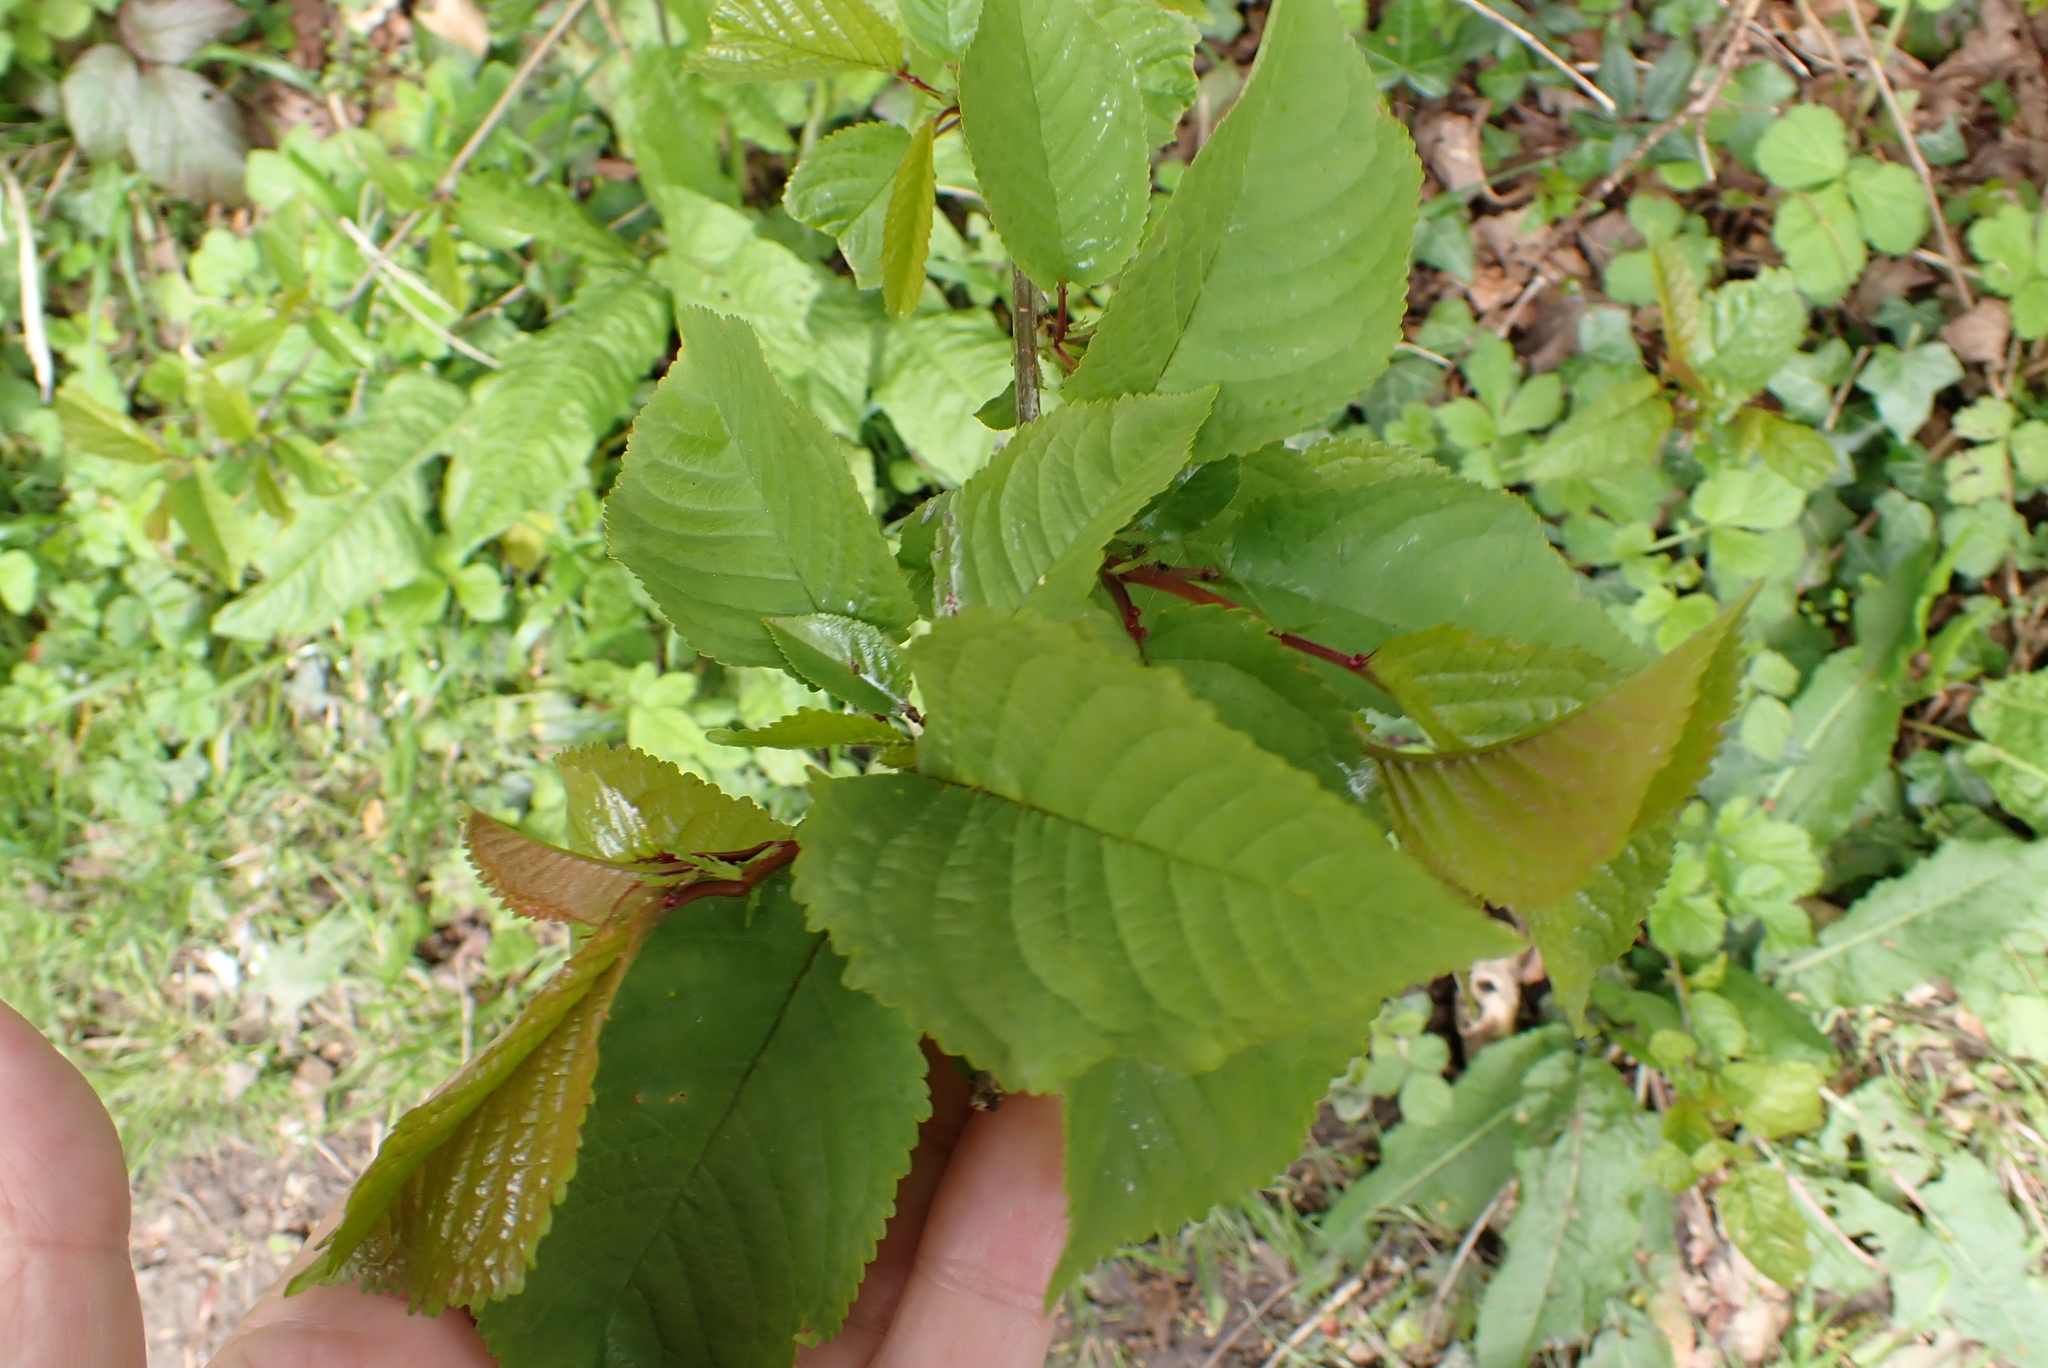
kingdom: Plantae
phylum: Tracheophyta
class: Magnoliopsida
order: Rosales
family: Rosaceae
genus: Prunus
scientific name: Prunus avium
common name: Sweet cherry
